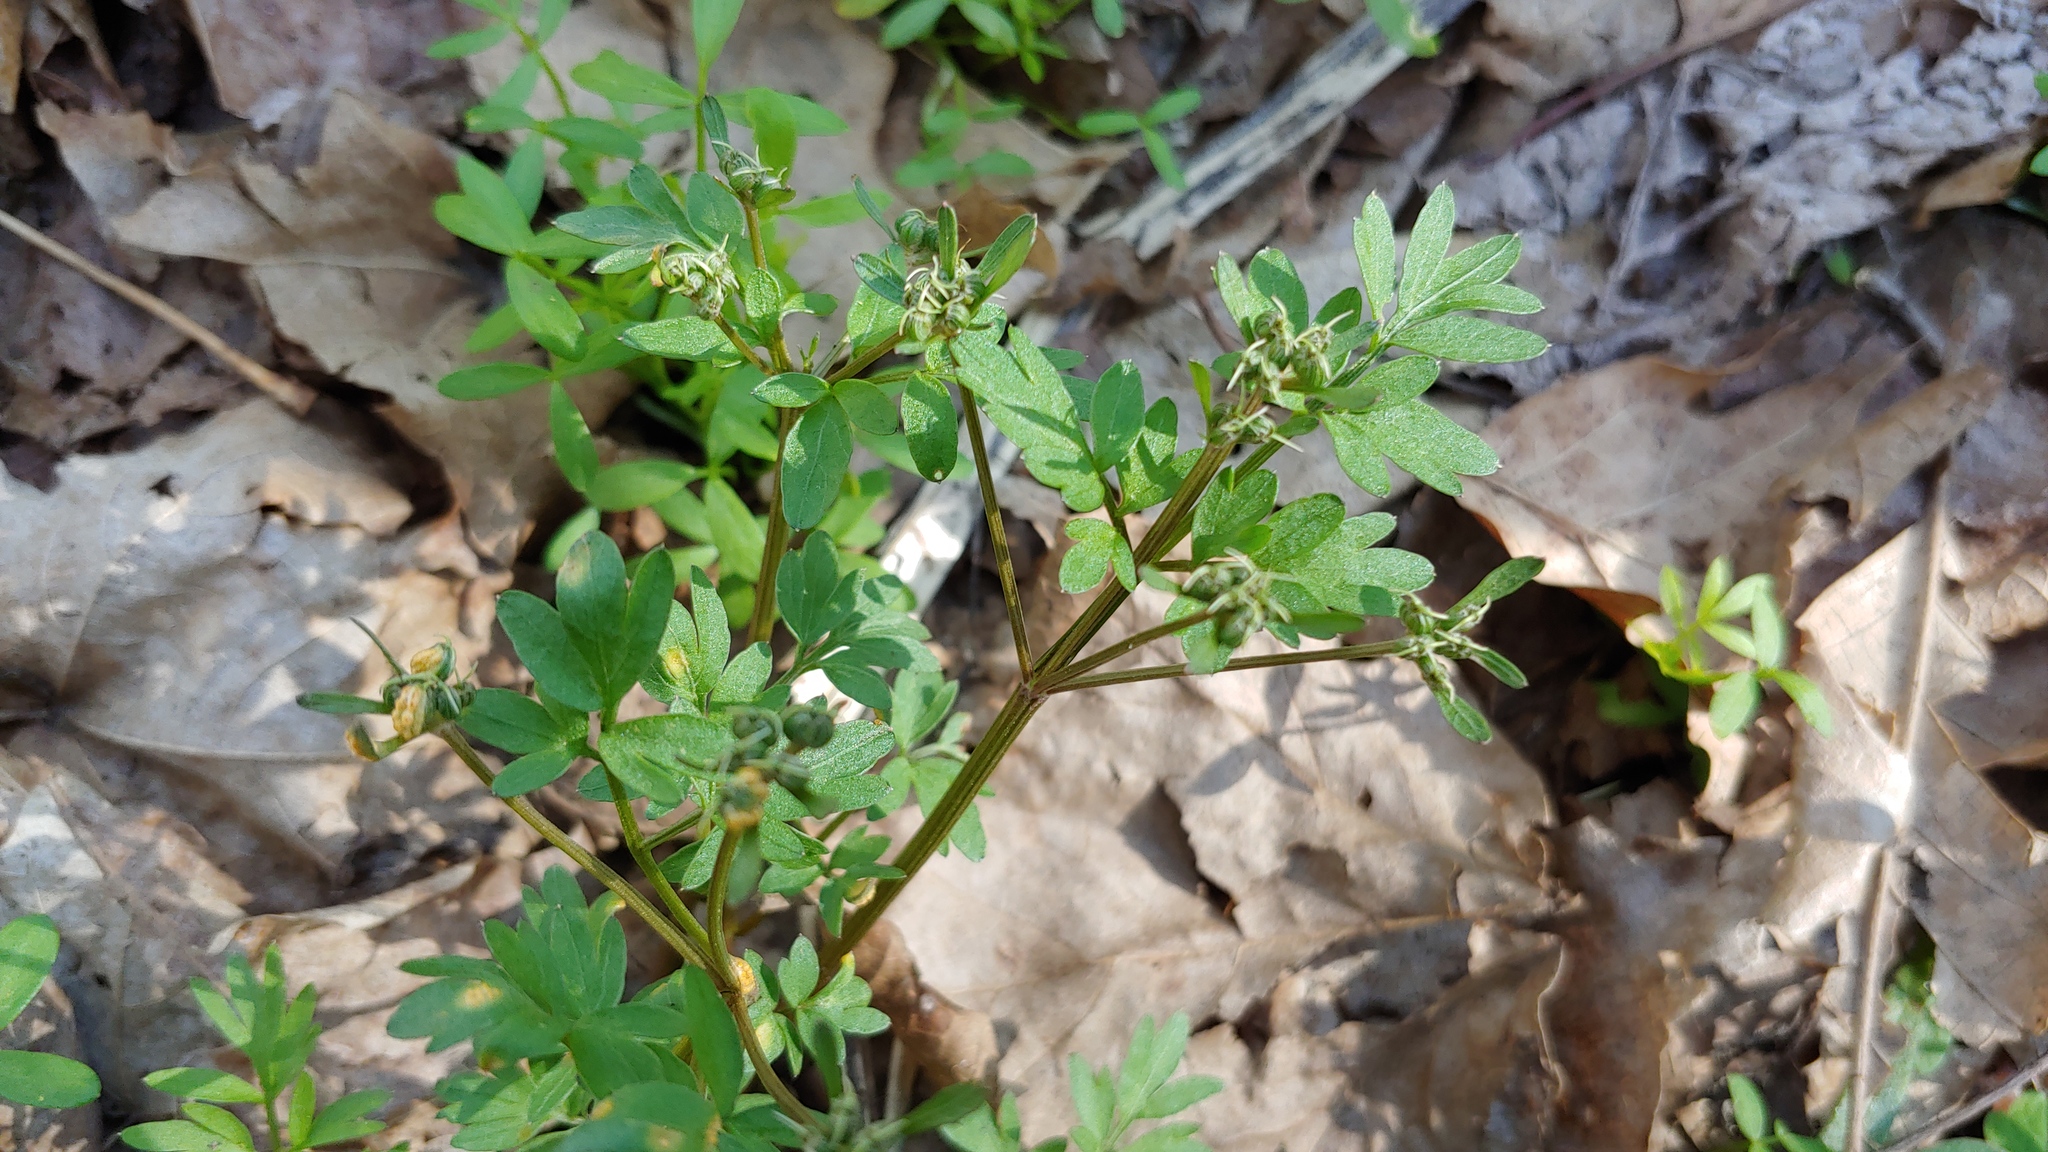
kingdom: Plantae
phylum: Tracheophyta
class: Magnoliopsida
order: Apiales
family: Apiaceae
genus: Erigenia
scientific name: Erigenia bulbosa
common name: Pepper-and-salt
